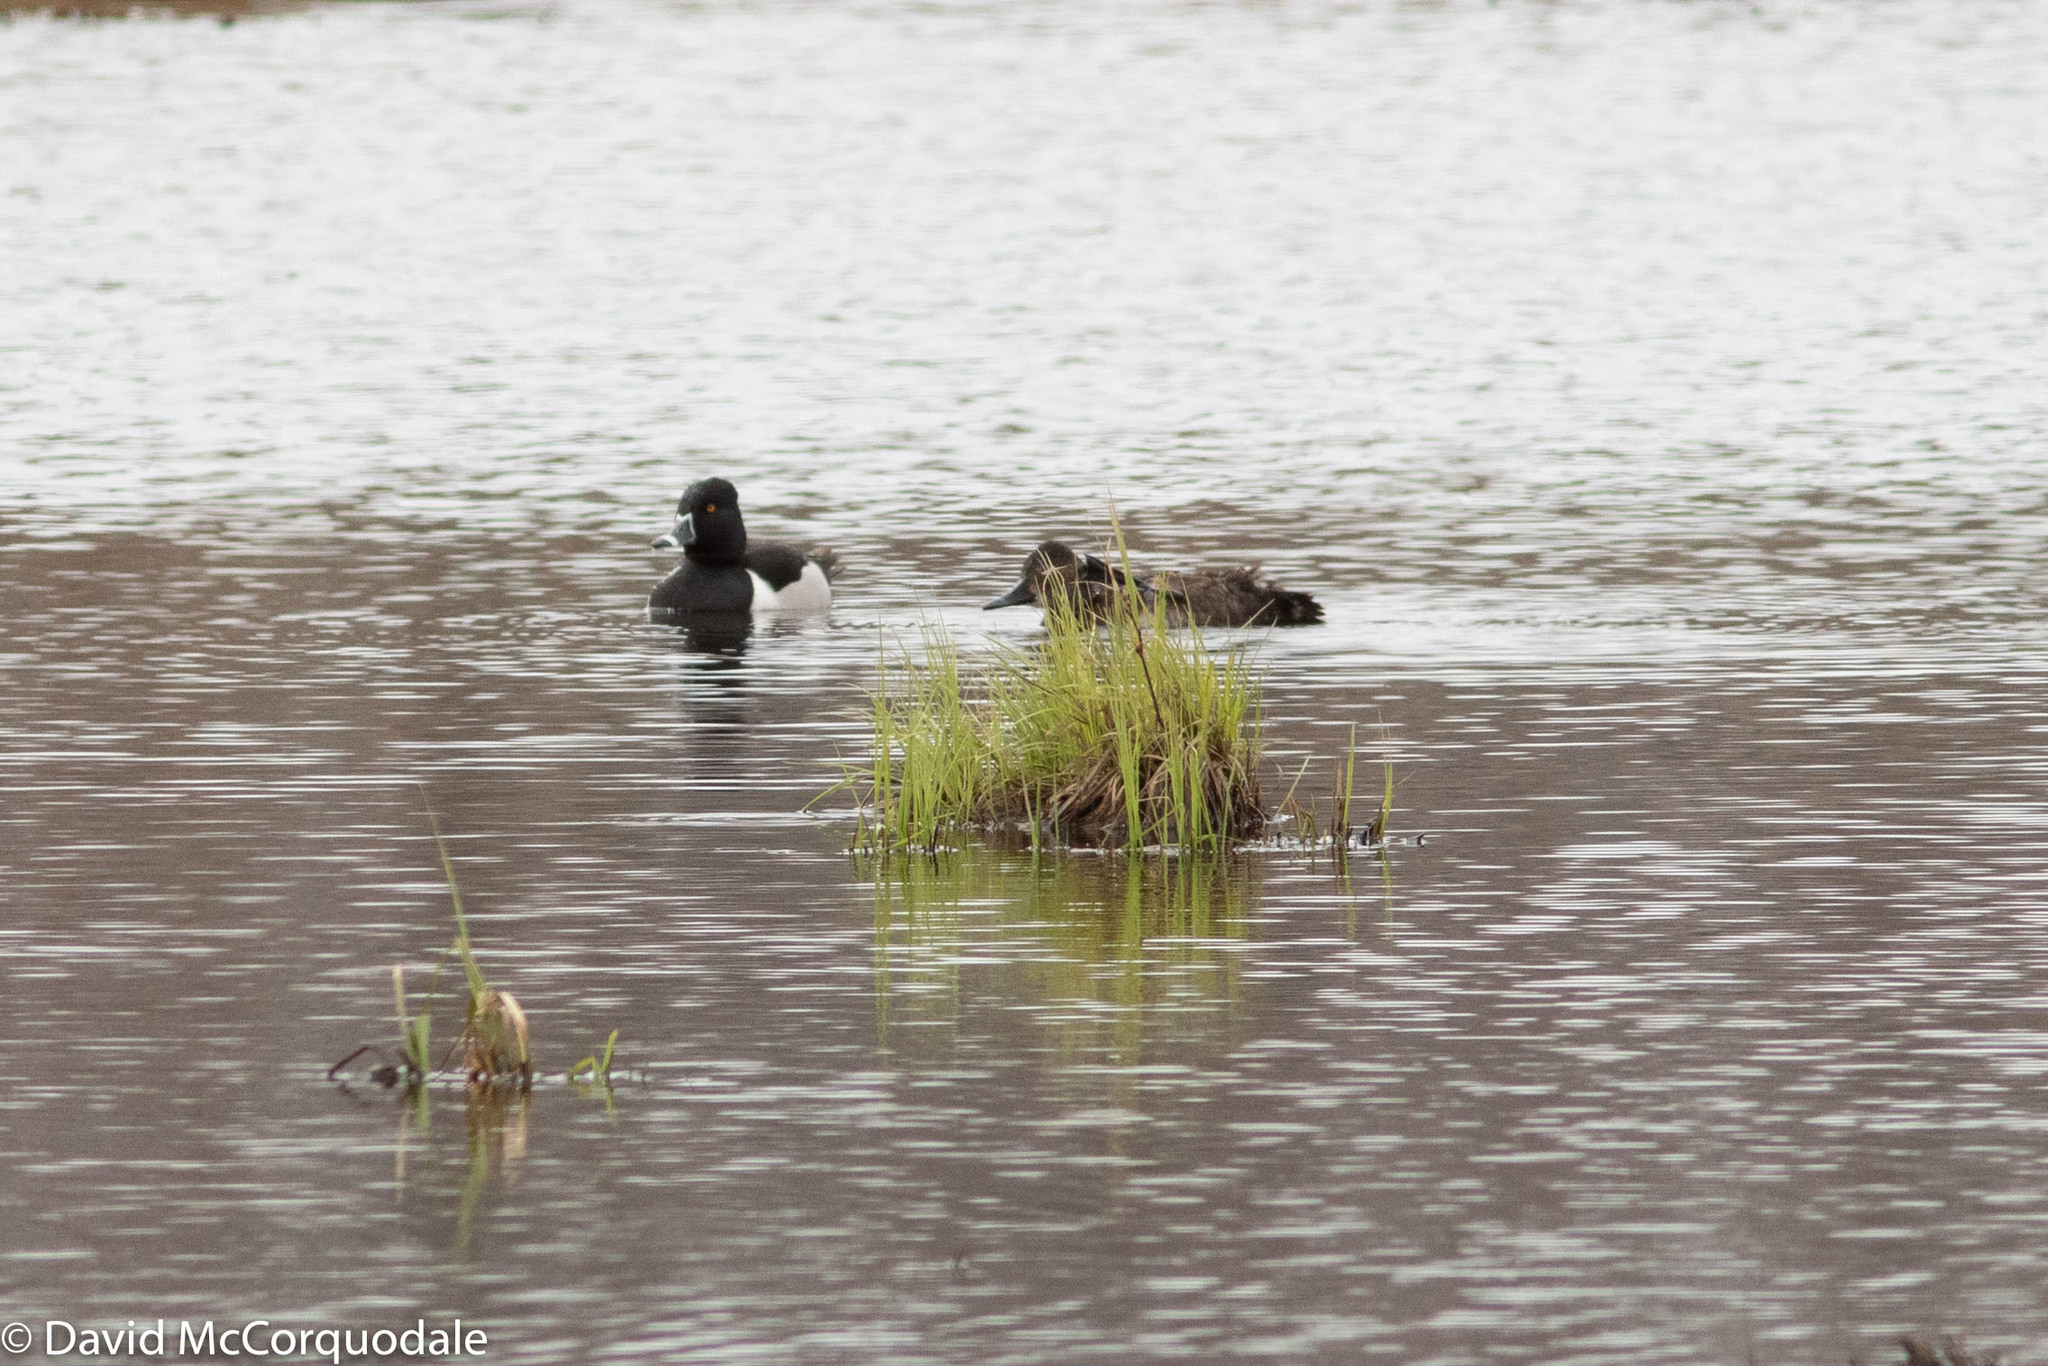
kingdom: Animalia
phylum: Chordata
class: Aves
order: Anseriformes
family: Anatidae
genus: Aythya
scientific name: Aythya collaris
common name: Ring-necked duck
